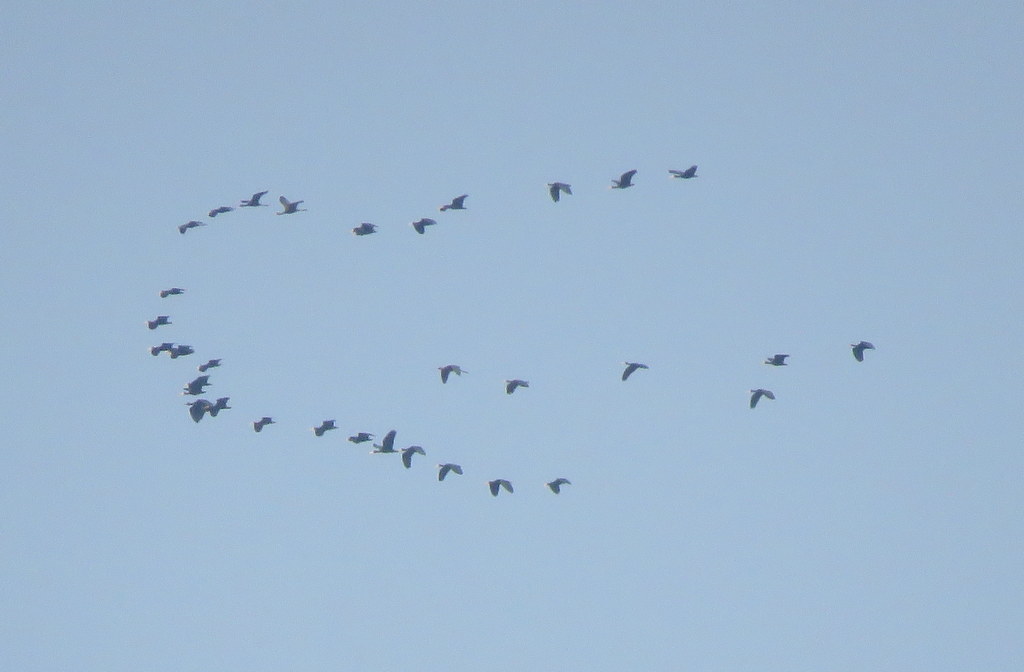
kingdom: Animalia
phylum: Chordata
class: Aves
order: Pelecaniformes
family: Threskiornithidae
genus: Phimosus
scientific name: Phimosus infuscatus
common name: Bare-faced ibis
